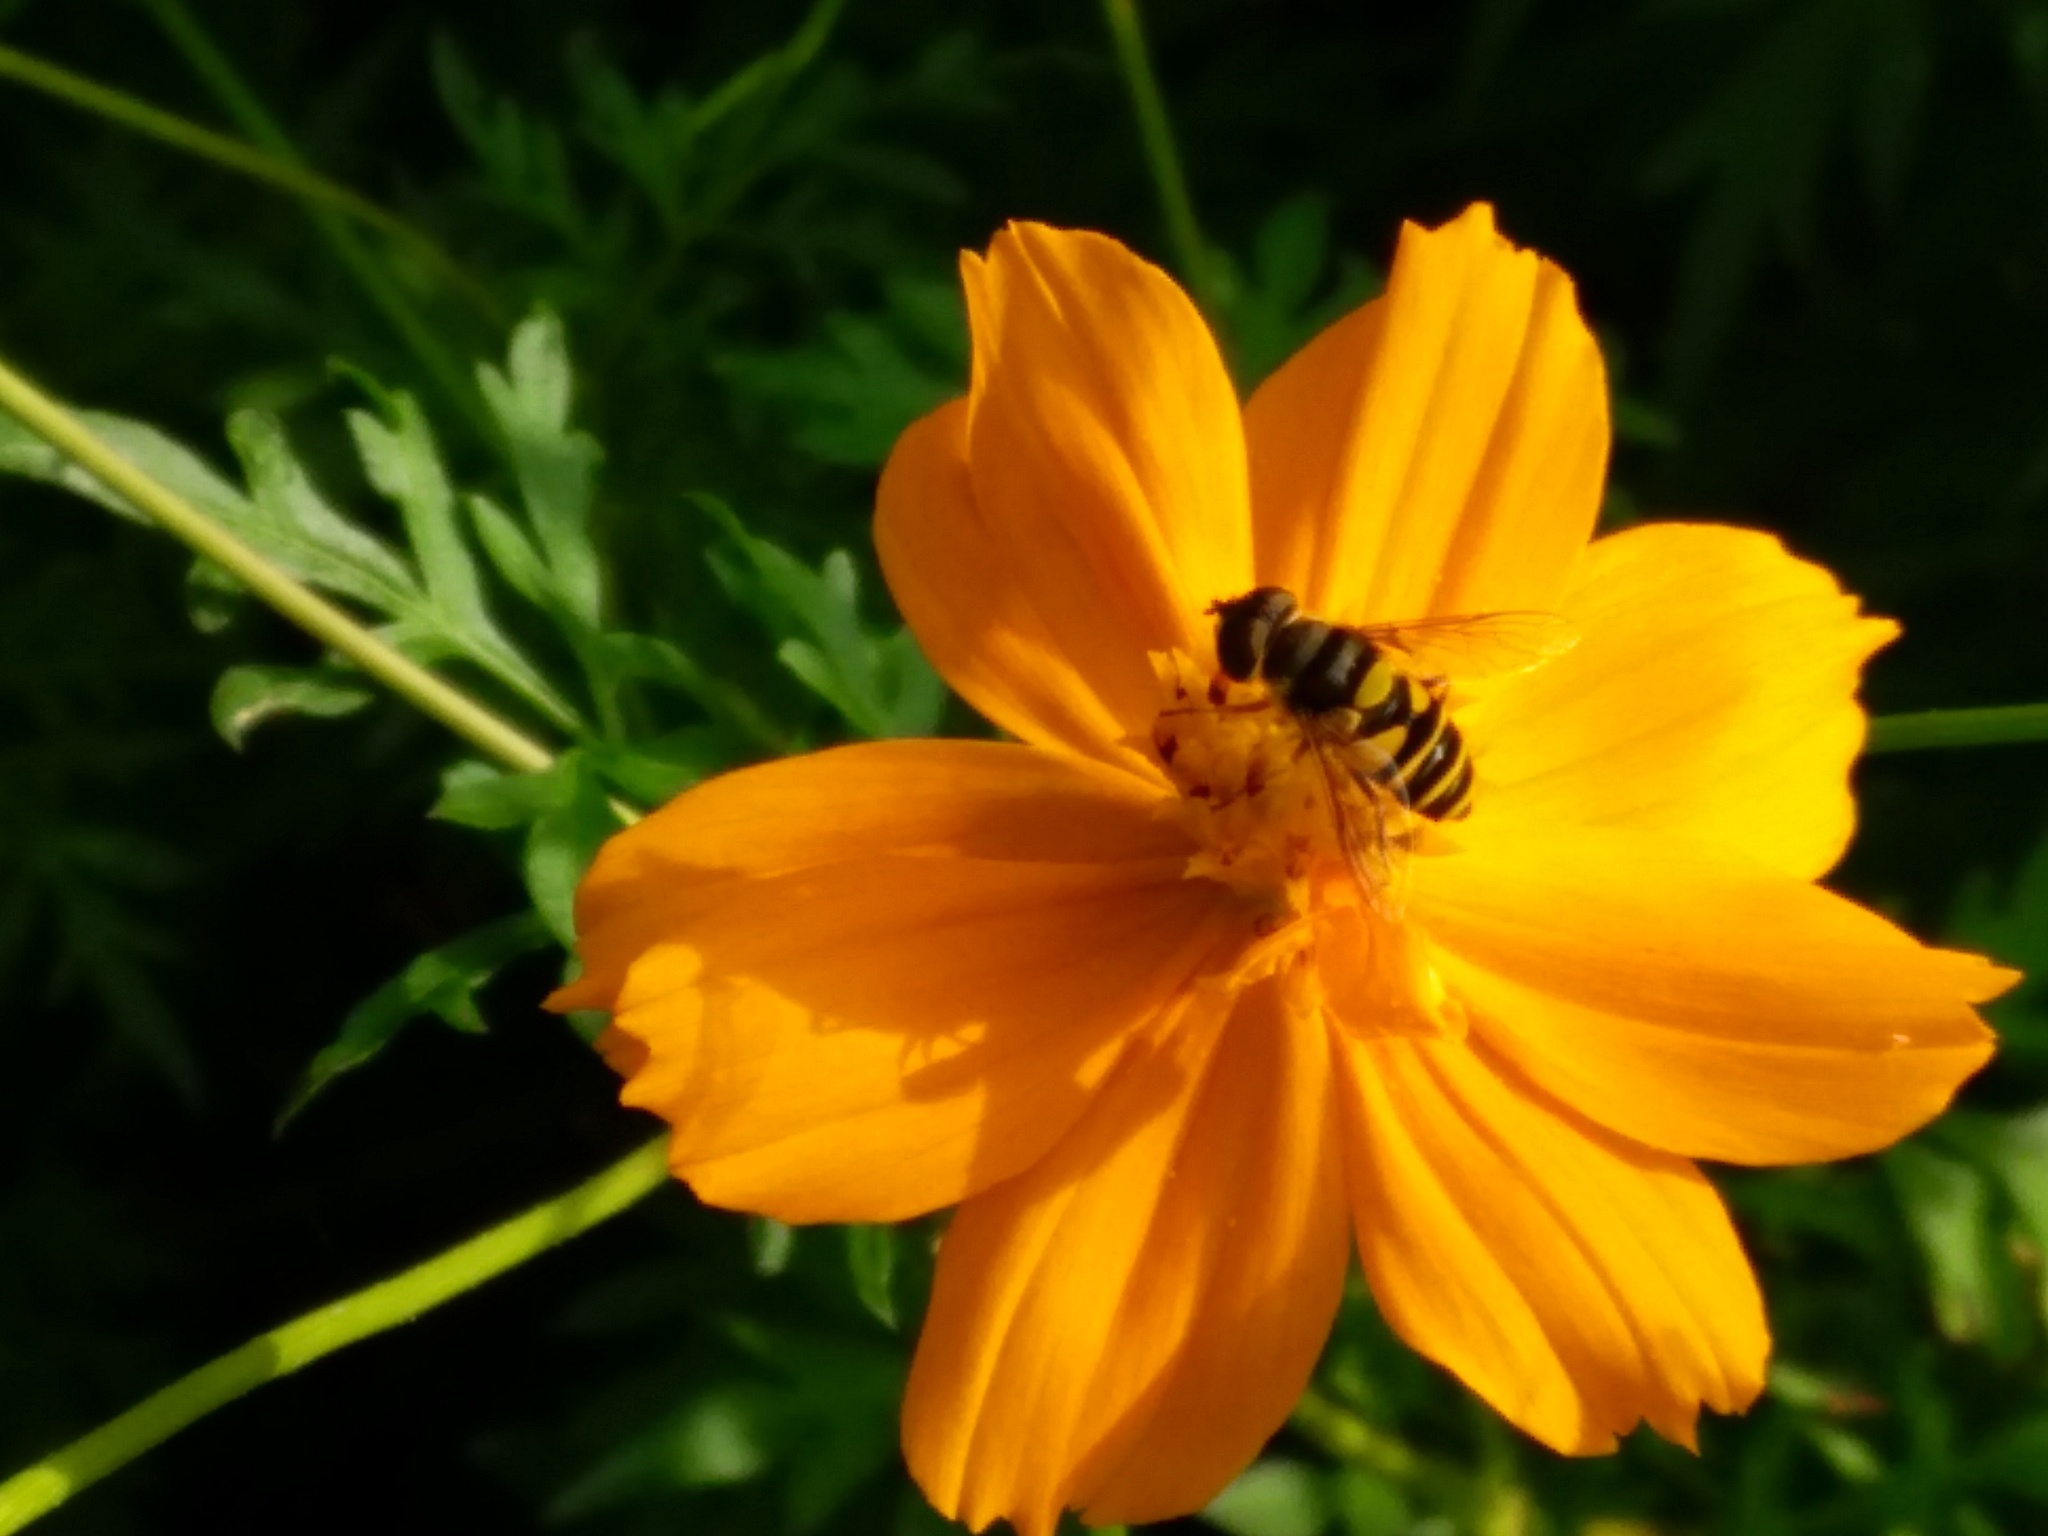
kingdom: Animalia
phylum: Arthropoda
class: Insecta
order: Diptera
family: Syrphidae
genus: Eristalis
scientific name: Eristalis transversa
